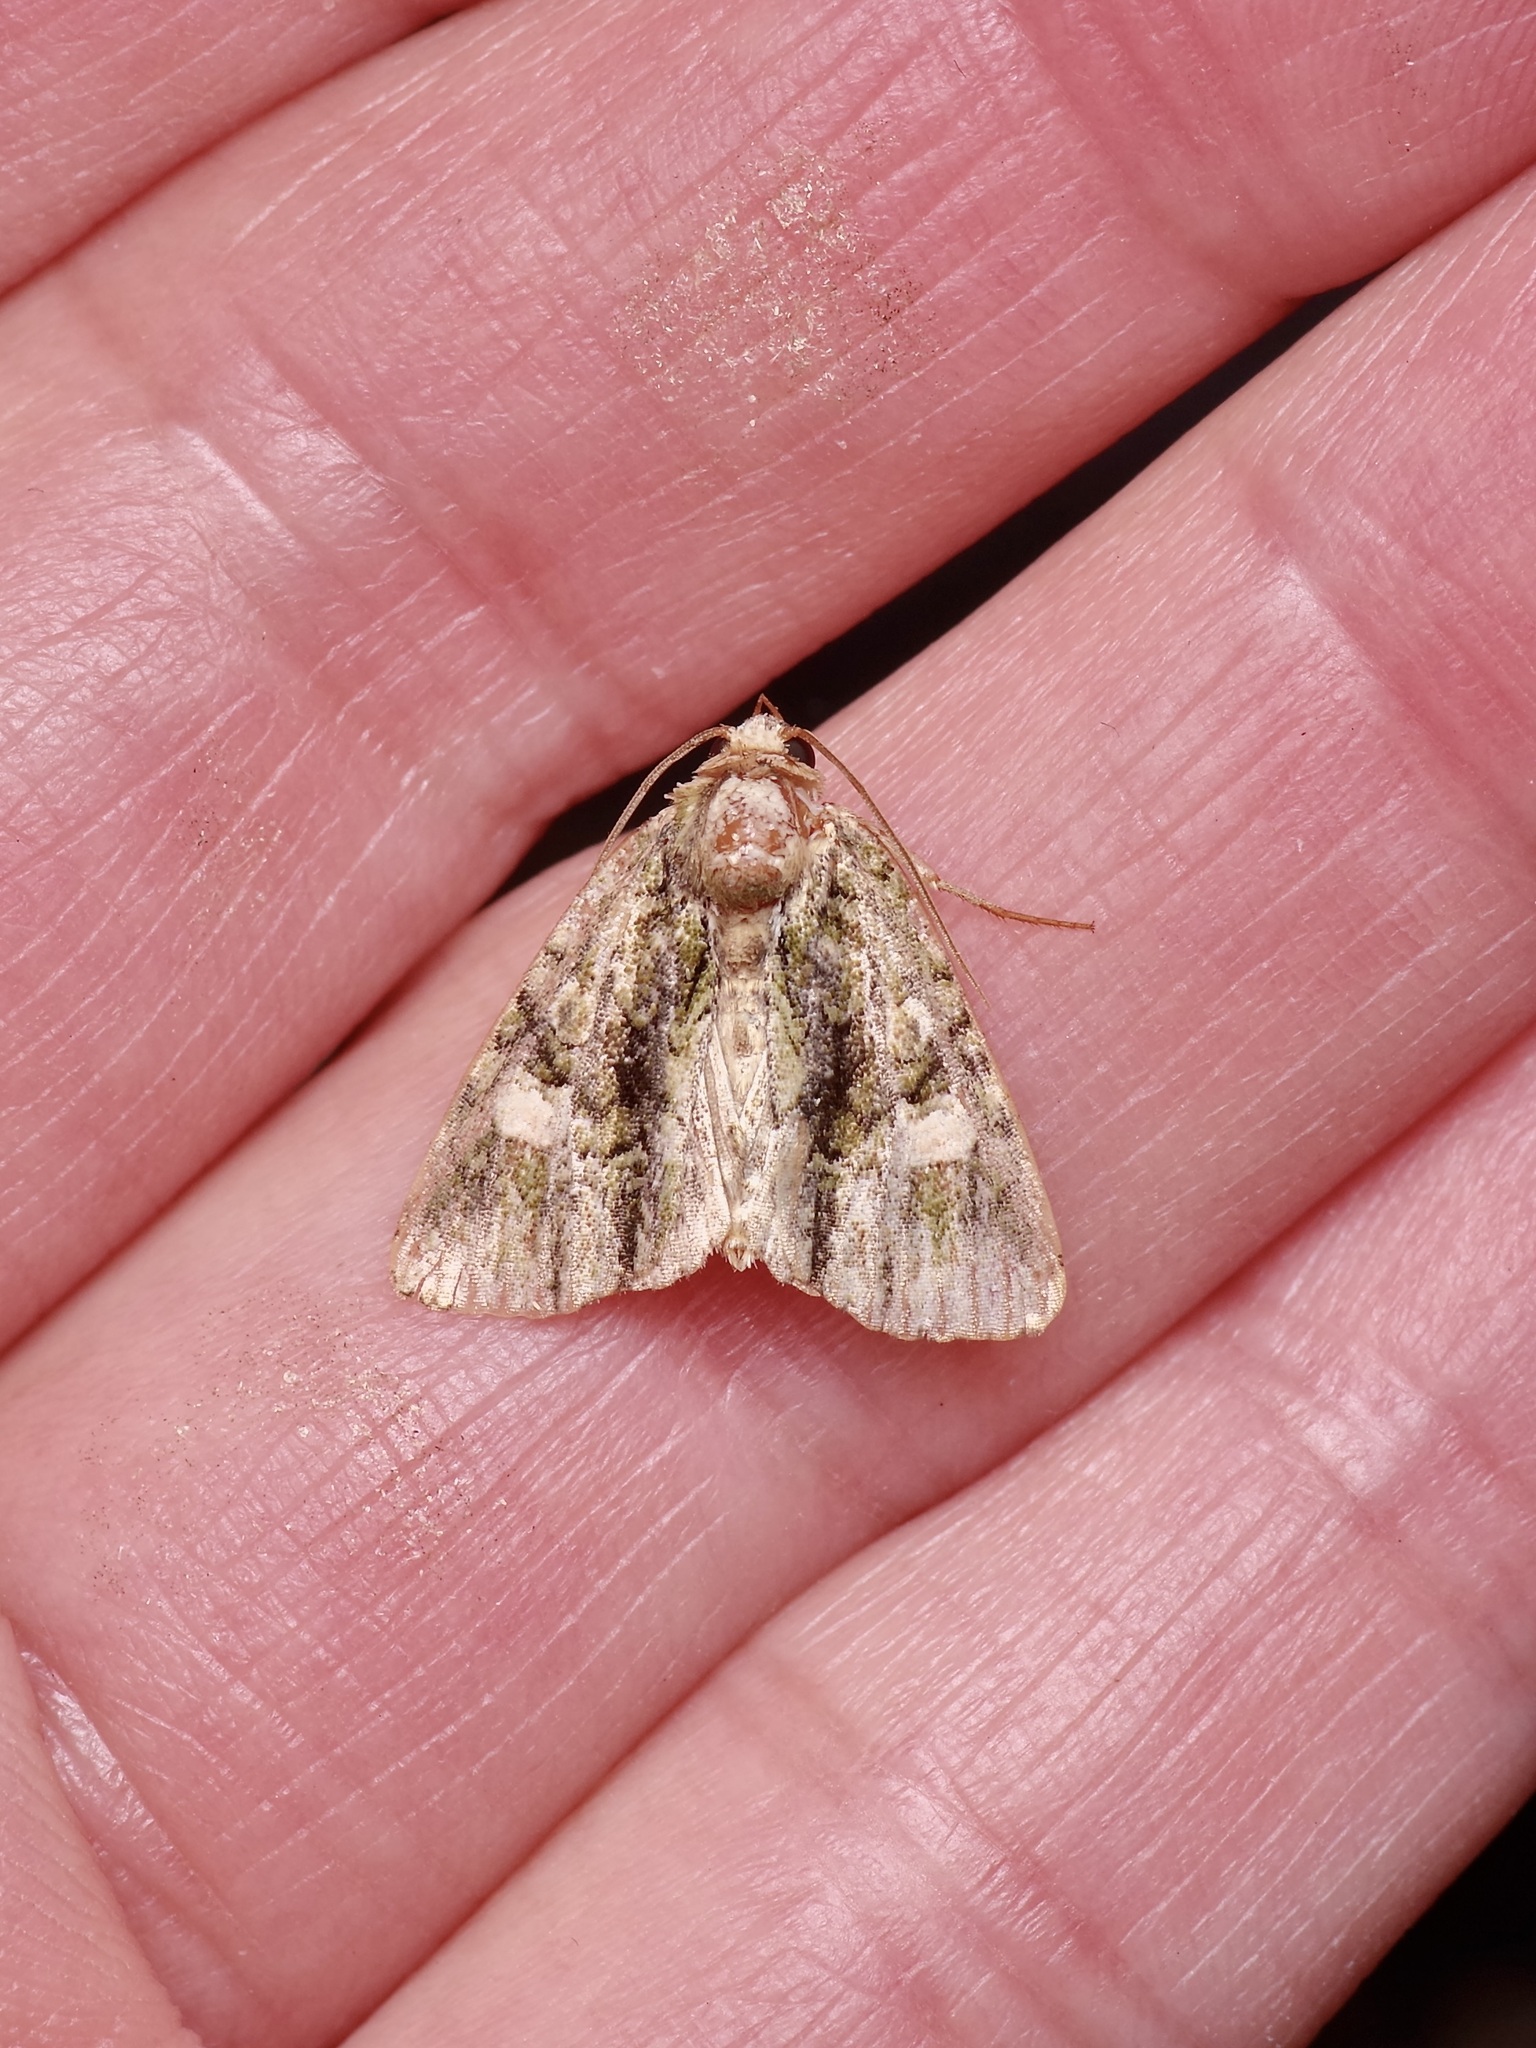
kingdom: Animalia
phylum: Arthropoda
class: Insecta
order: Lepidoptera
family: Noctuidae
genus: Phosphila
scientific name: Phosphila miselioides
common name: Spotted phosphila moth
